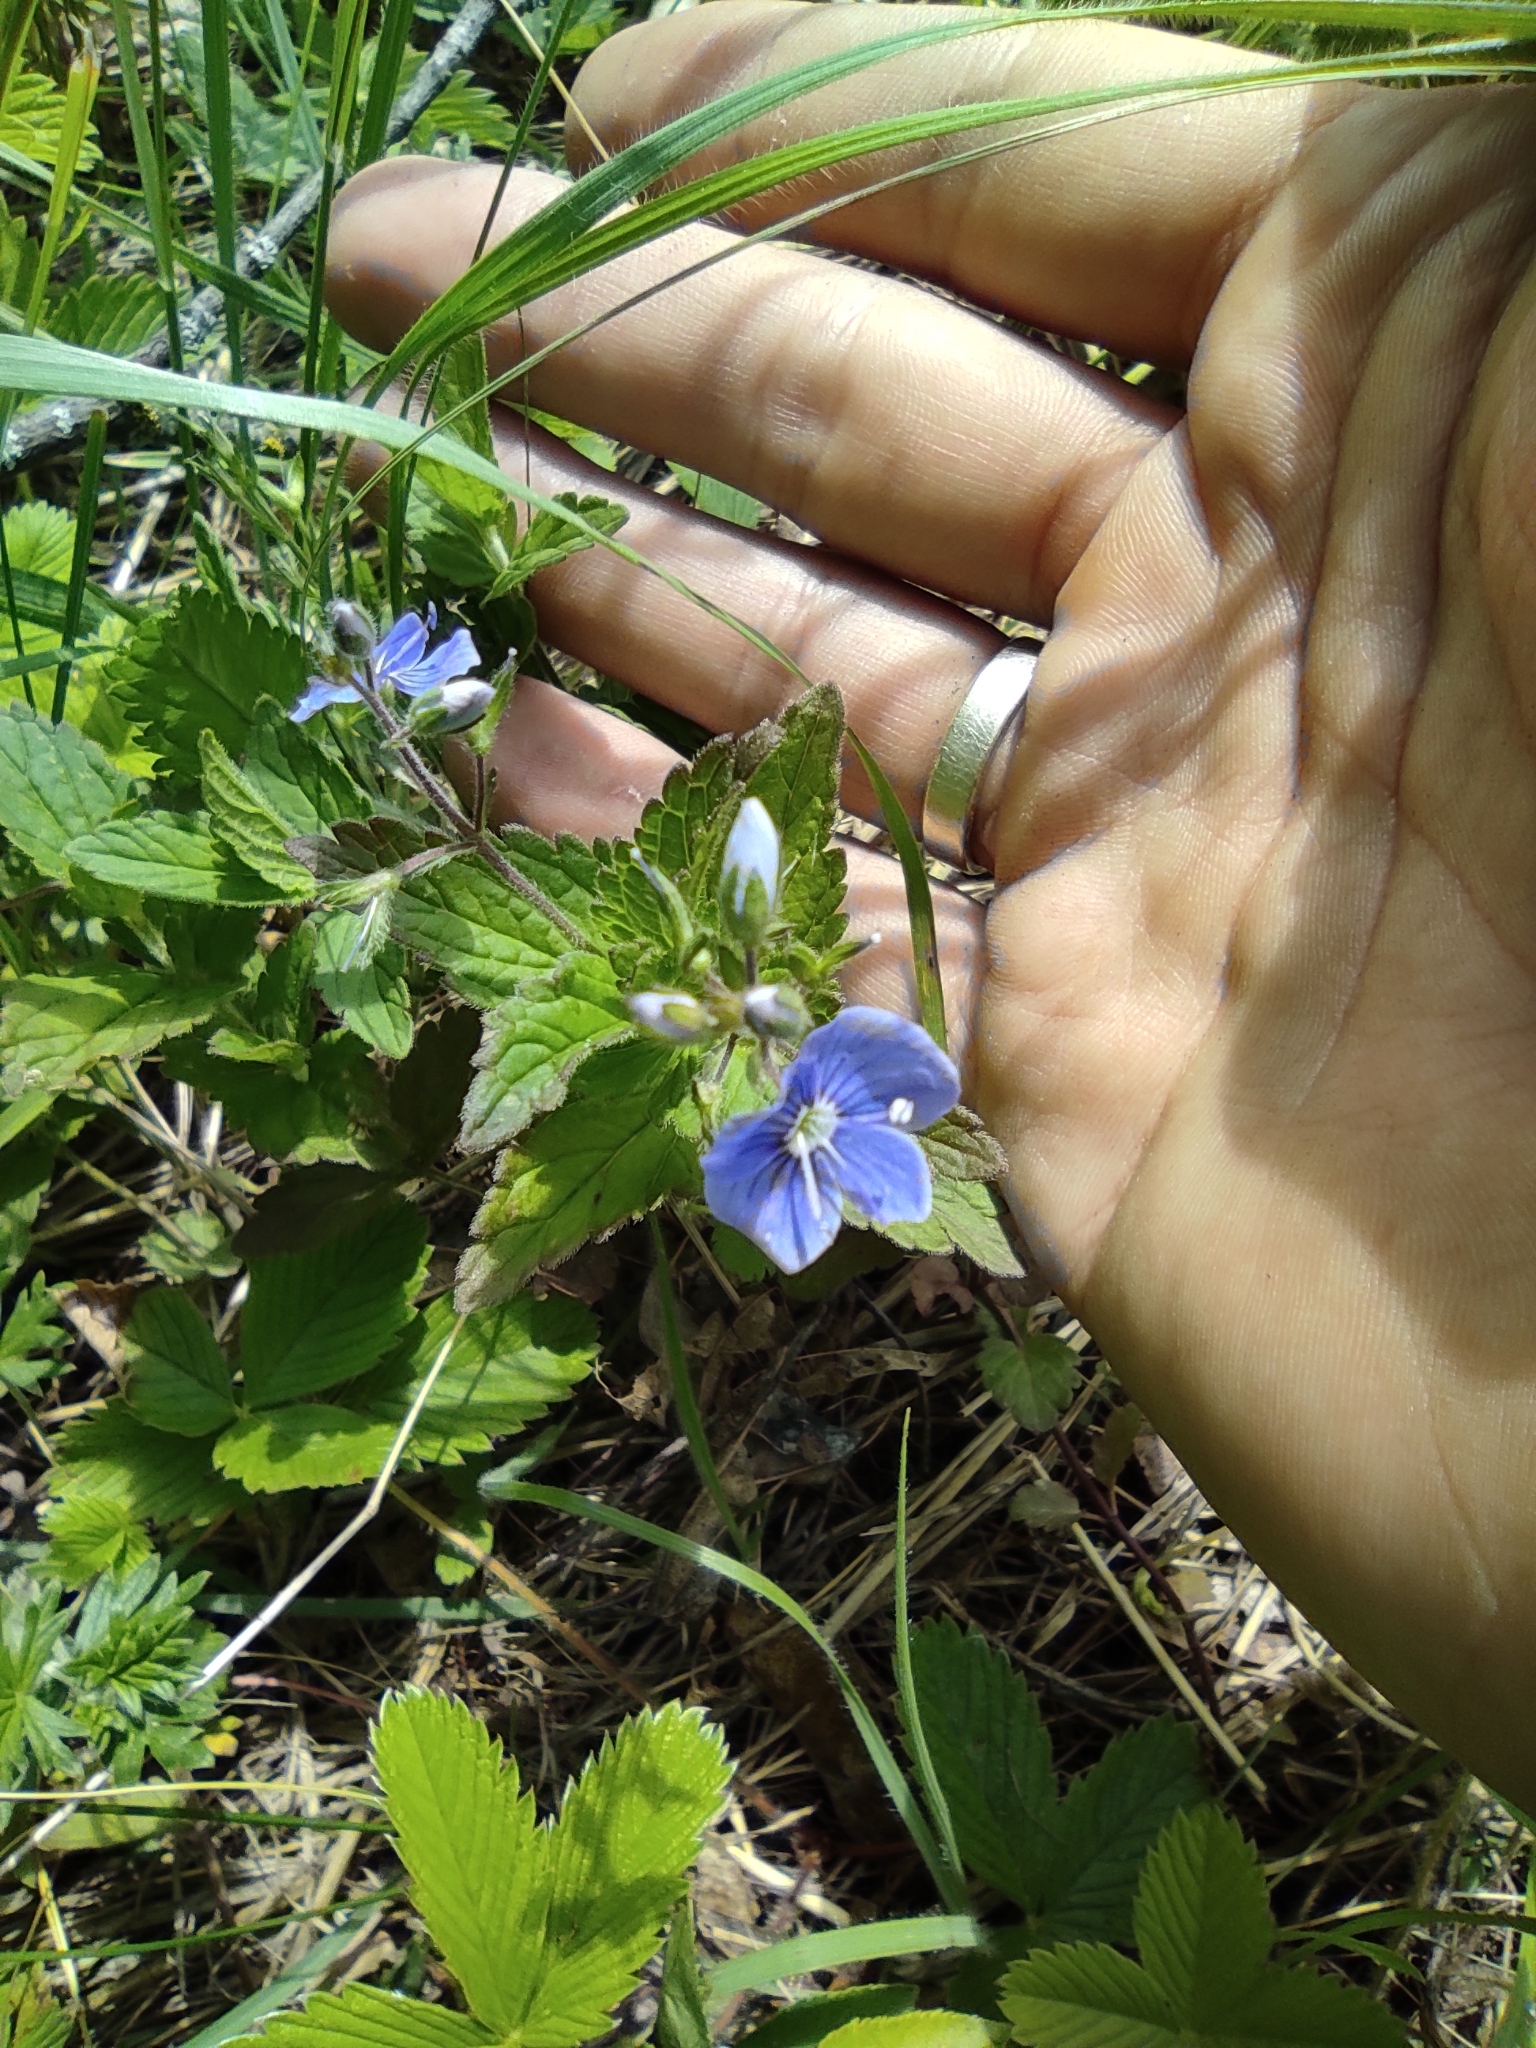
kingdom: Plantae
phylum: Tracheophyta
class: Magnoliopsida
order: Lamiales
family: Plantaginaceae
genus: Veronica
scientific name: Veronica chamaedrys
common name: Germander speedwell
